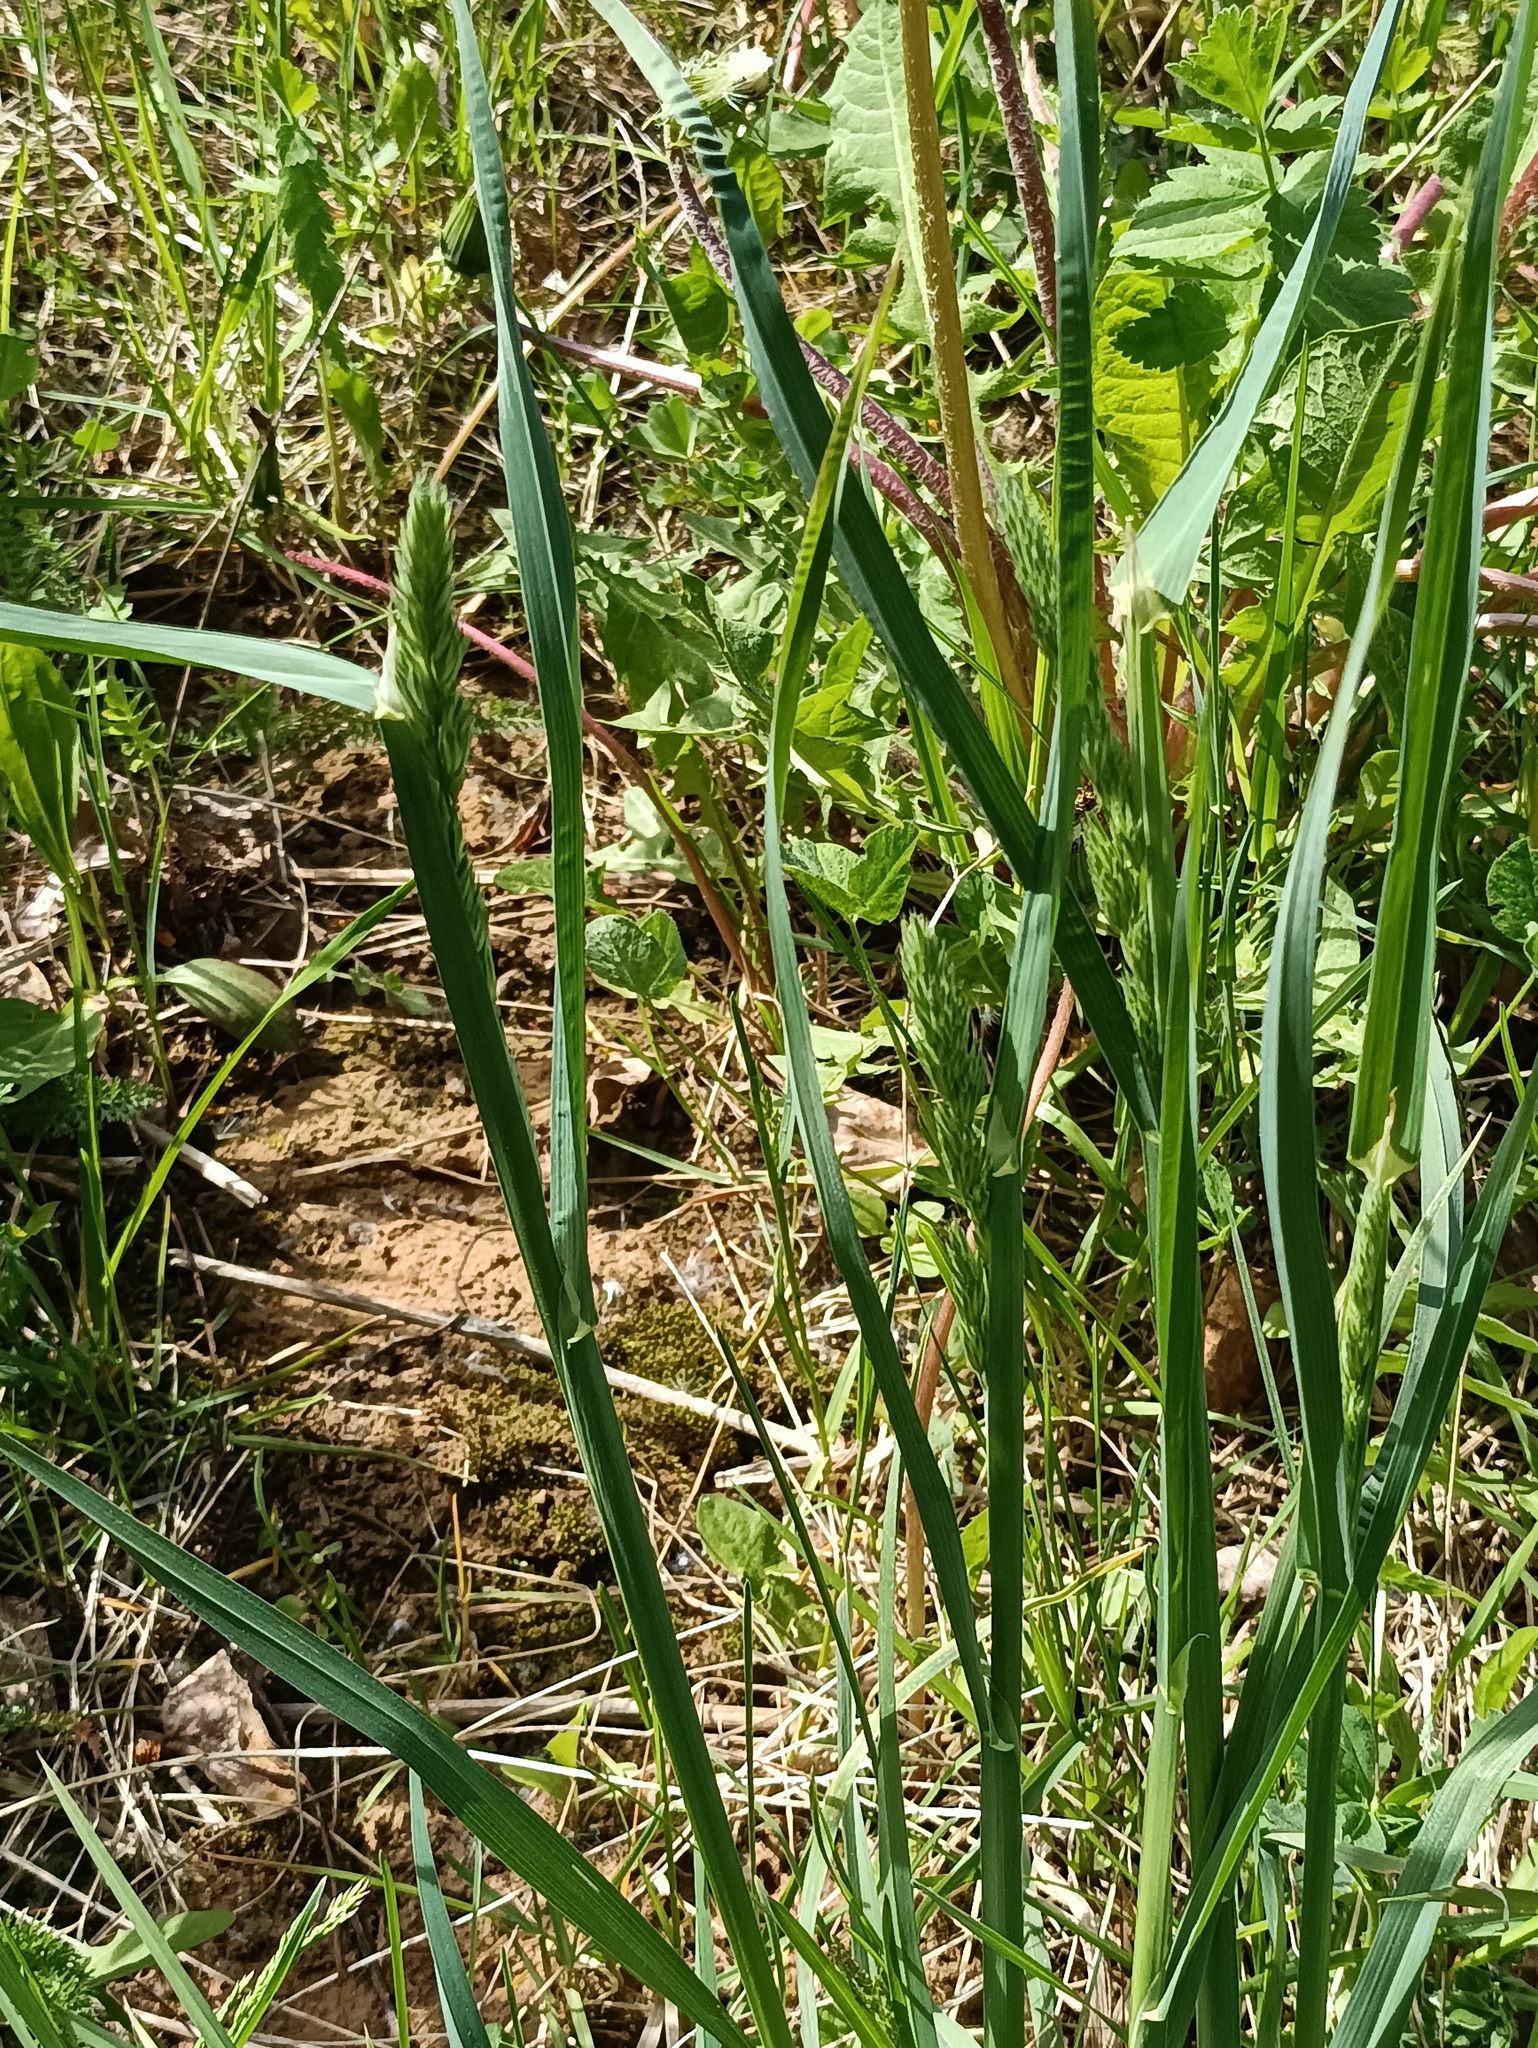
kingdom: Plantae
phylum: Tracheophyta
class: Liliopsida
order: Poales
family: Poaceae
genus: Dactylis
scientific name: Dactylis glomerata
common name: Orchardgrass
